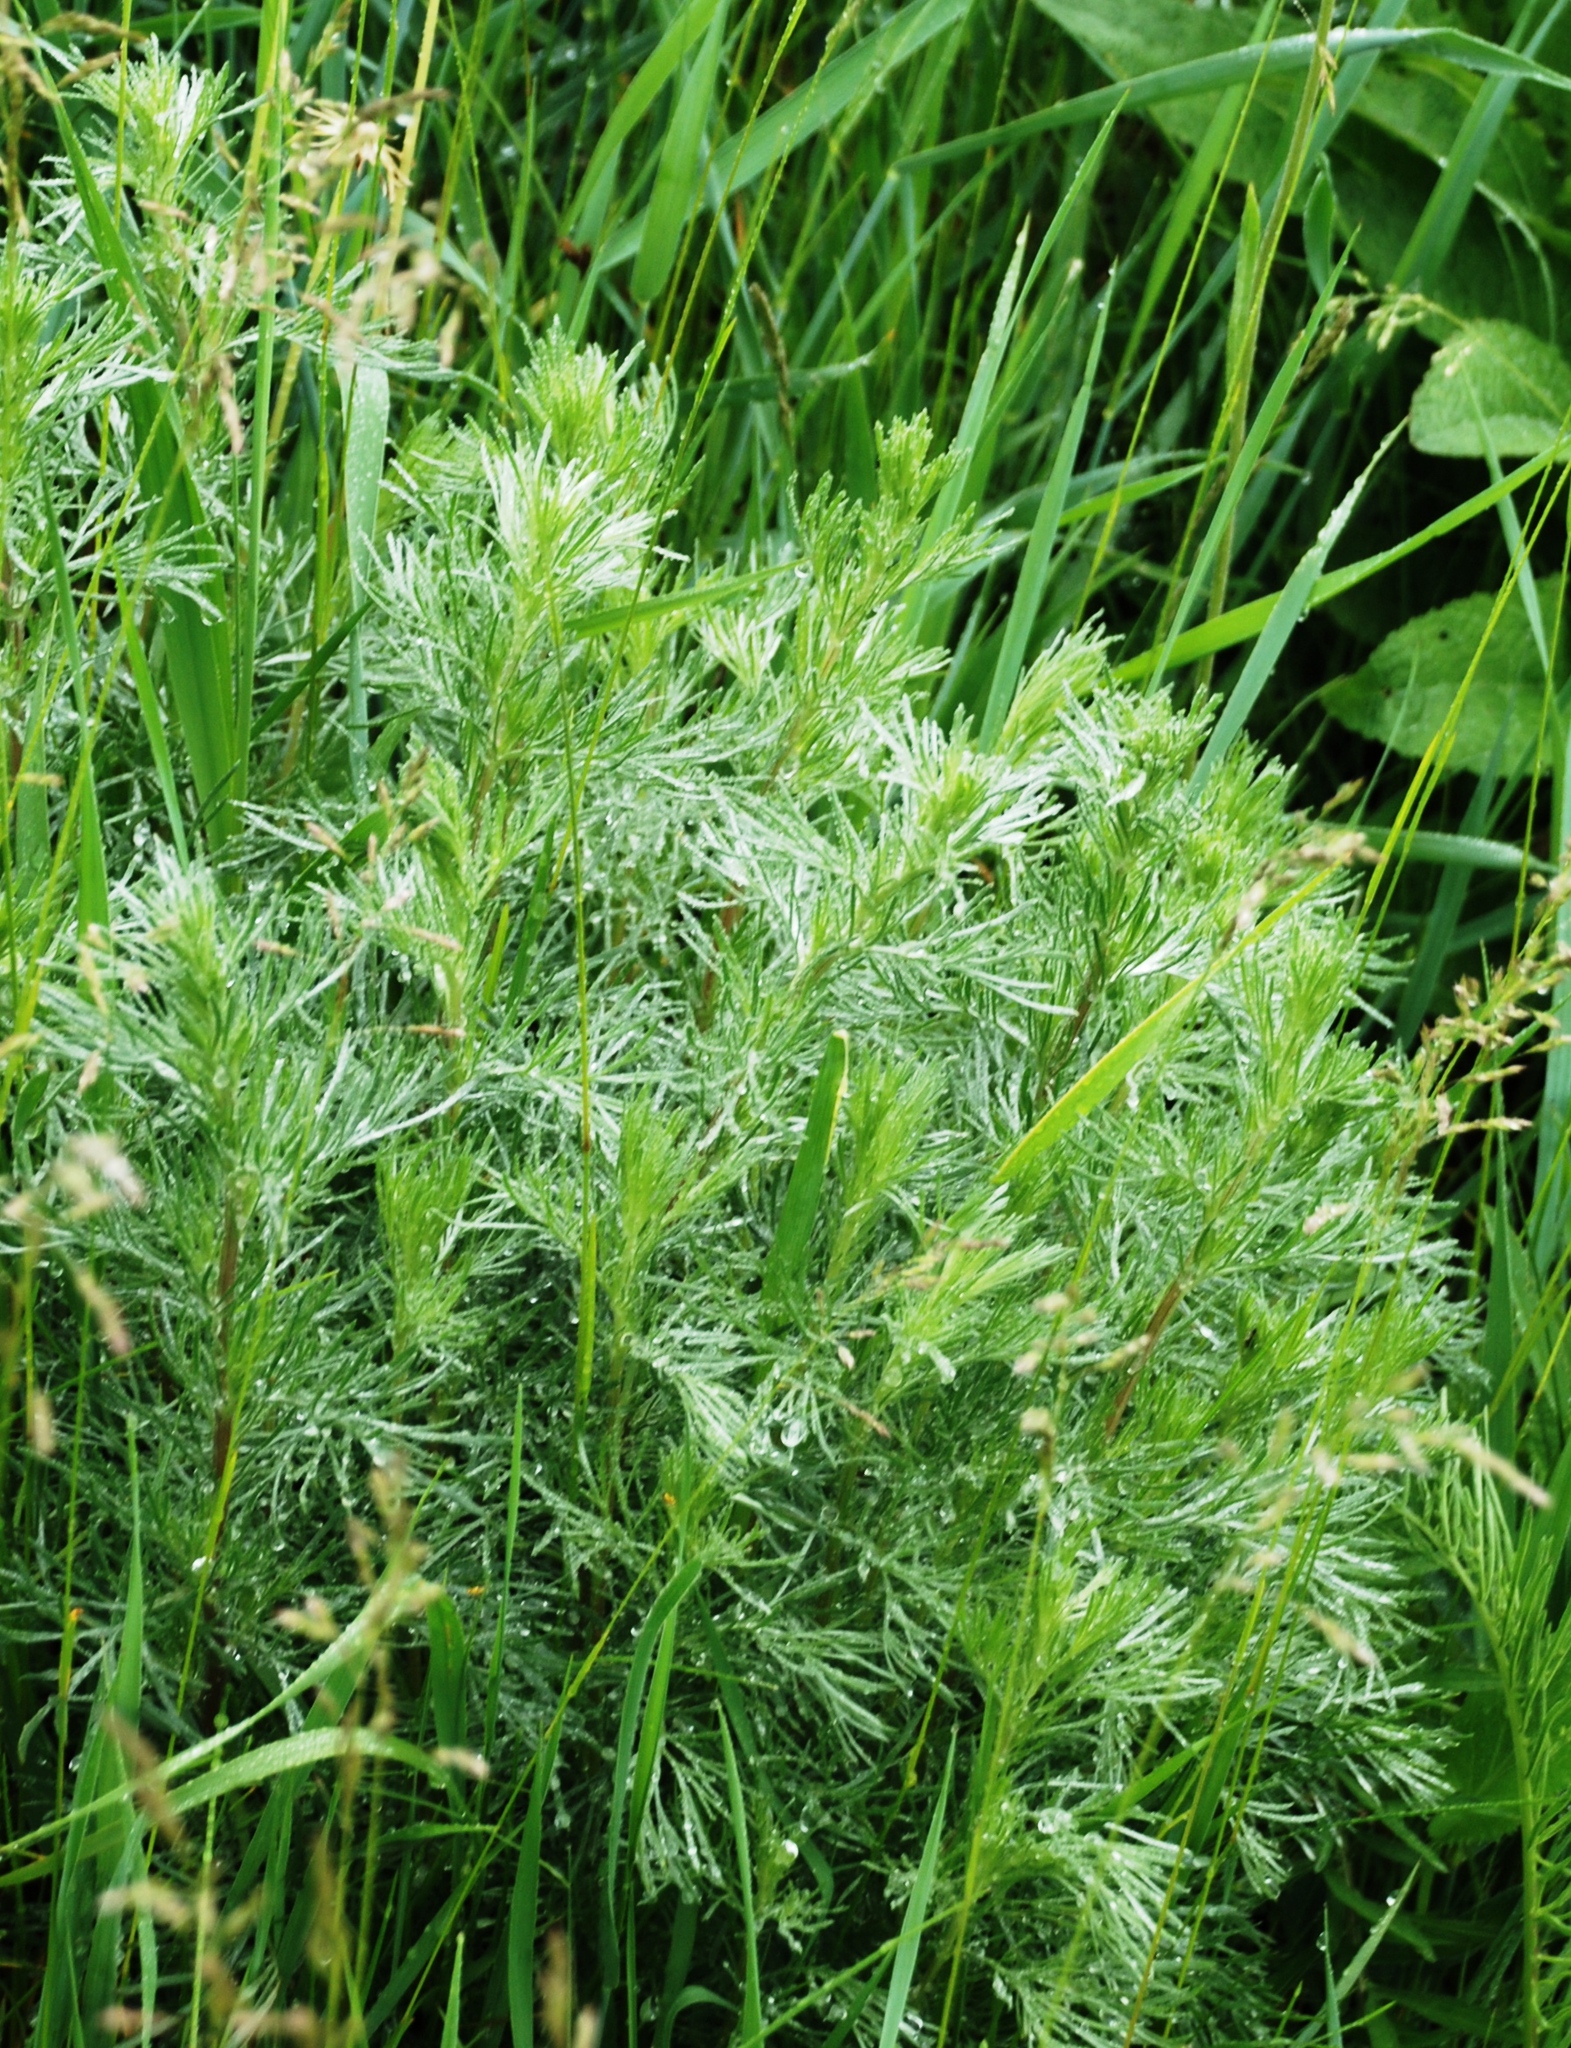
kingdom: Plantae
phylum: Tracheophyta
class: Magnoliopsida
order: Asterales
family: Asteraceae
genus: Artemisia
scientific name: Artemisia campestris
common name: Field wormwood
